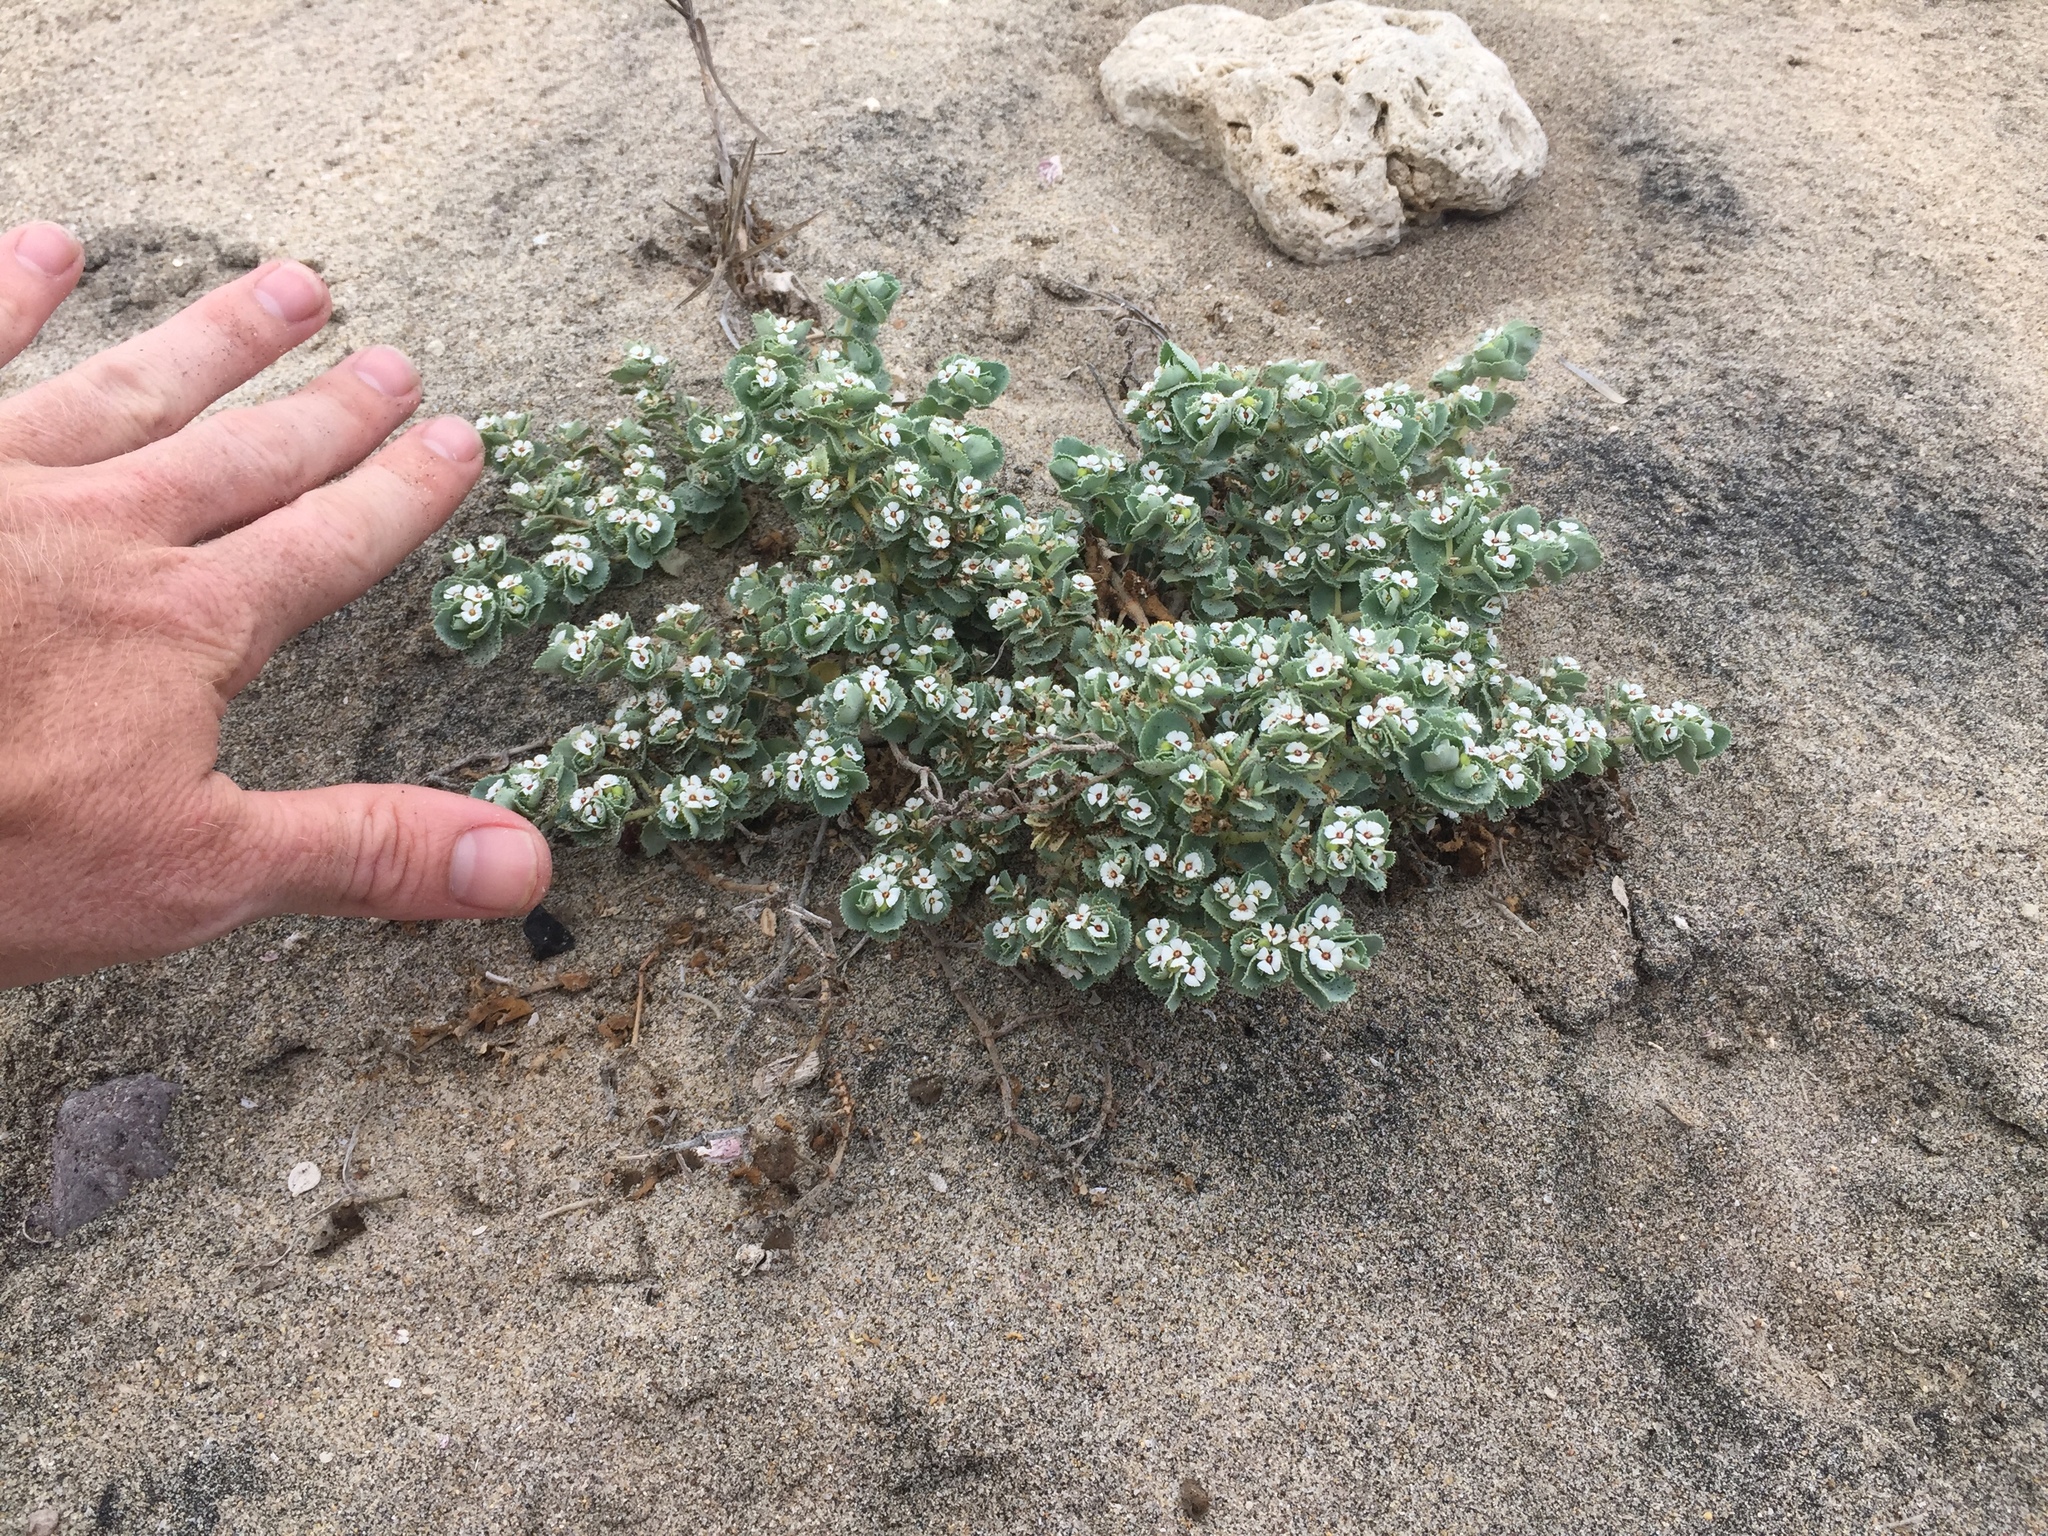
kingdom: Plantae
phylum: Tracheophyta
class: Magnoliopsida
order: Malpighiales
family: Euphorbiaceae
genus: Euphorbia
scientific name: Euphorbia leucophylla
